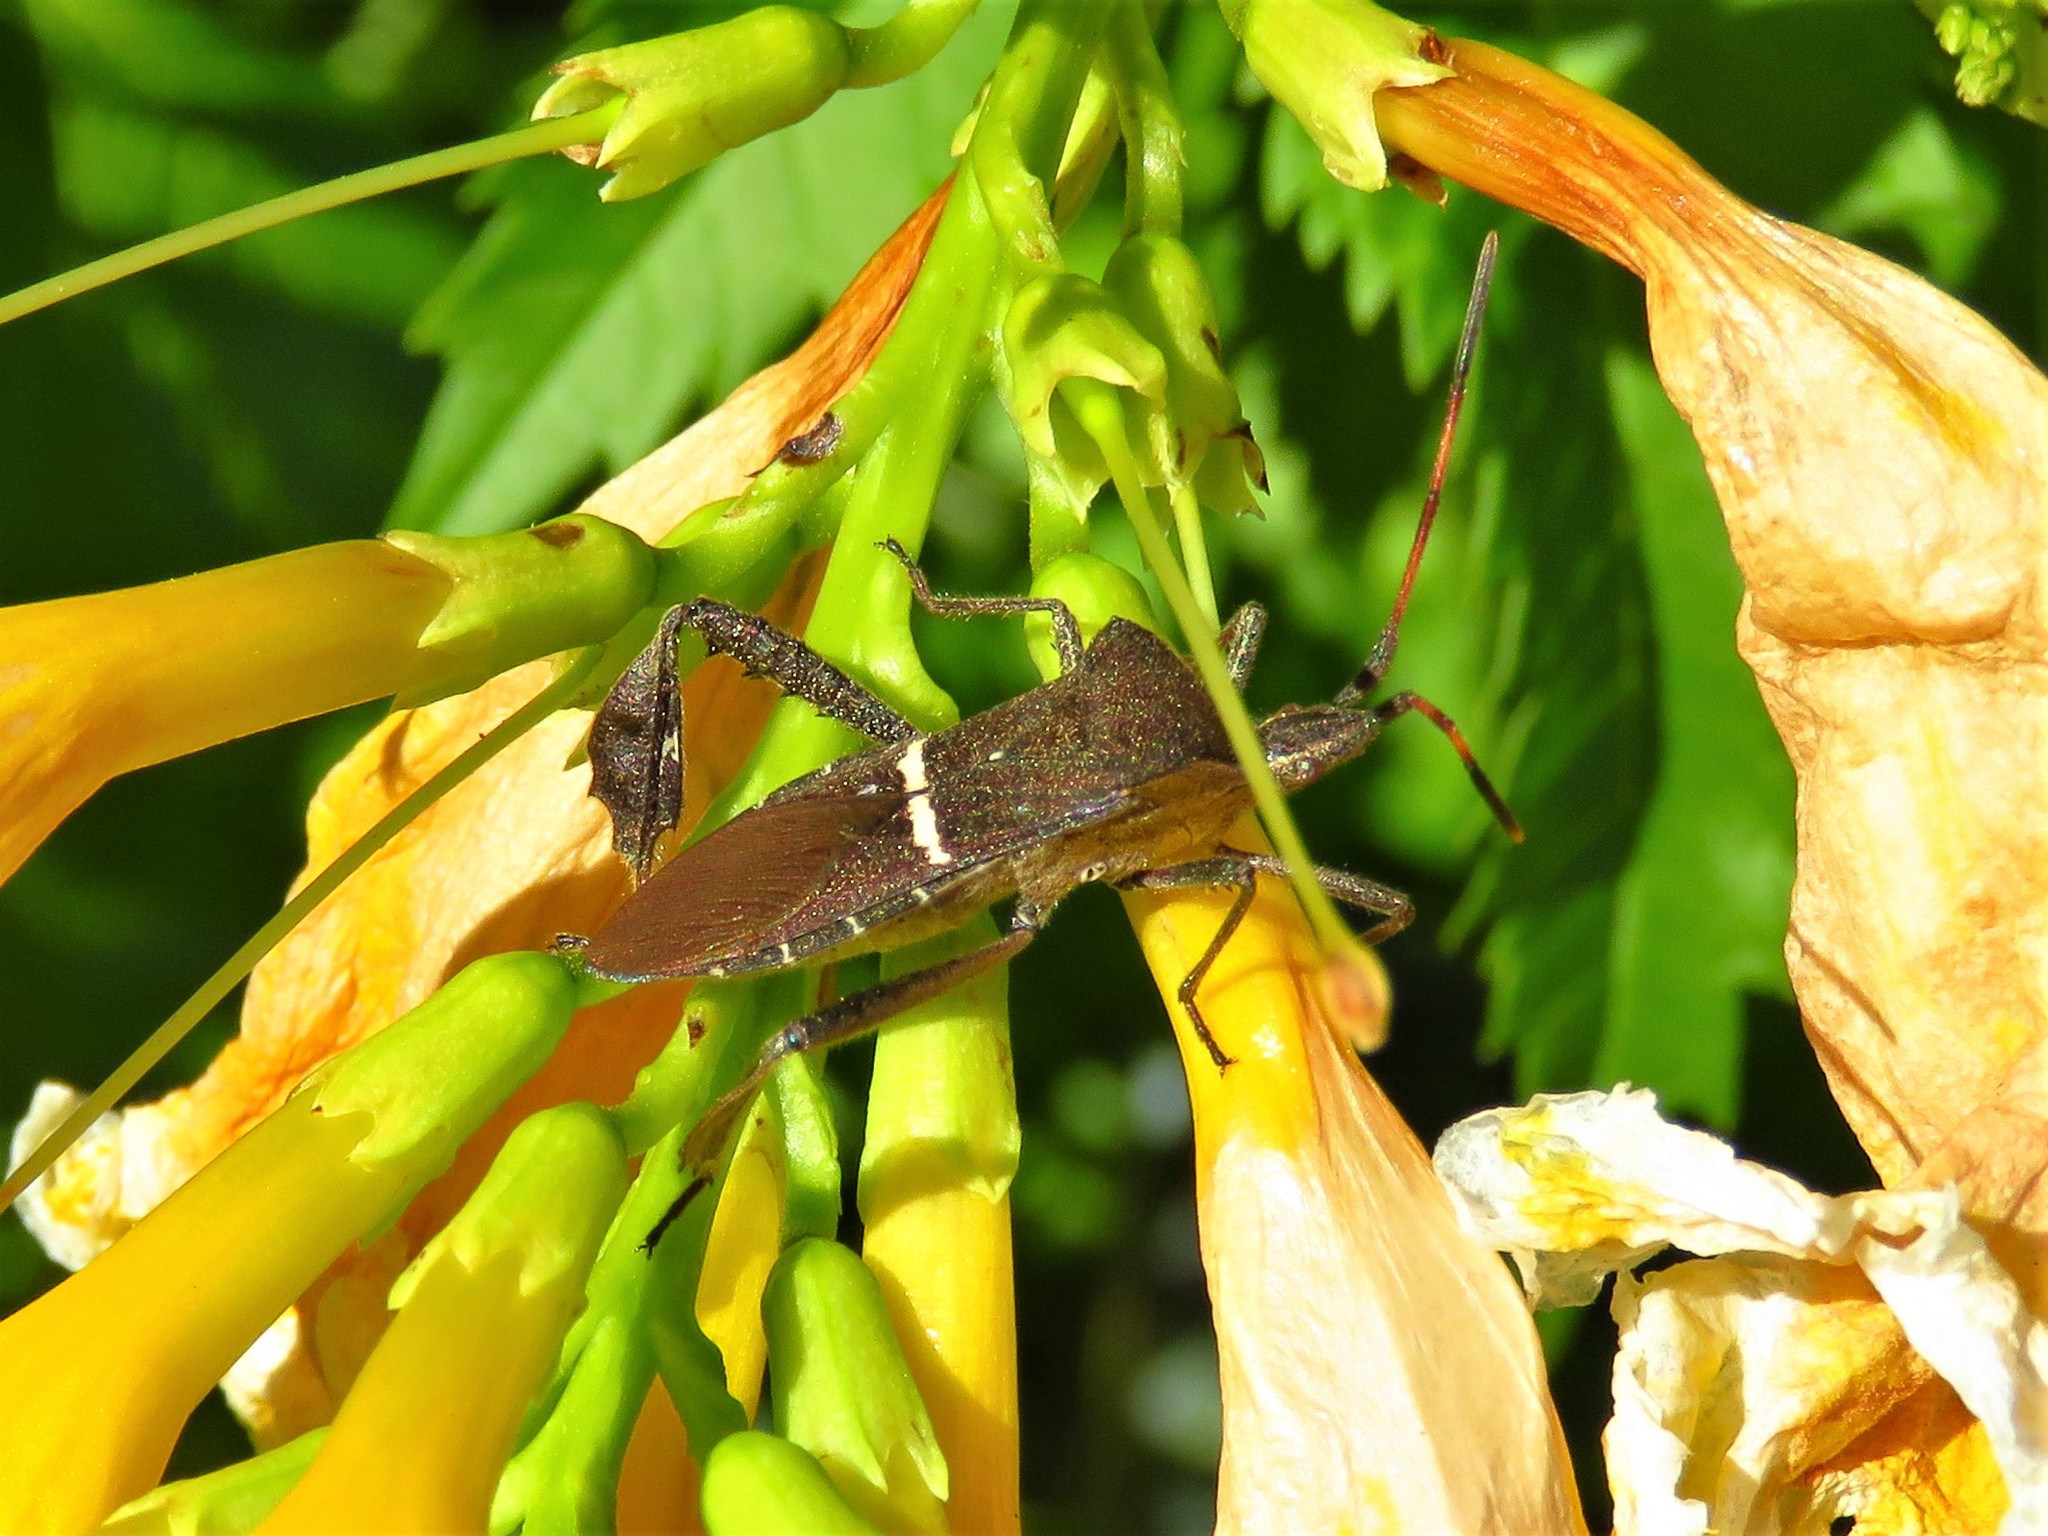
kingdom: Animalia
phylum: Arthropoda
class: Insecta
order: Hemiptera
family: Coreidae
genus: Leptoglossus
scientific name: Leptoglossus phyllopus
